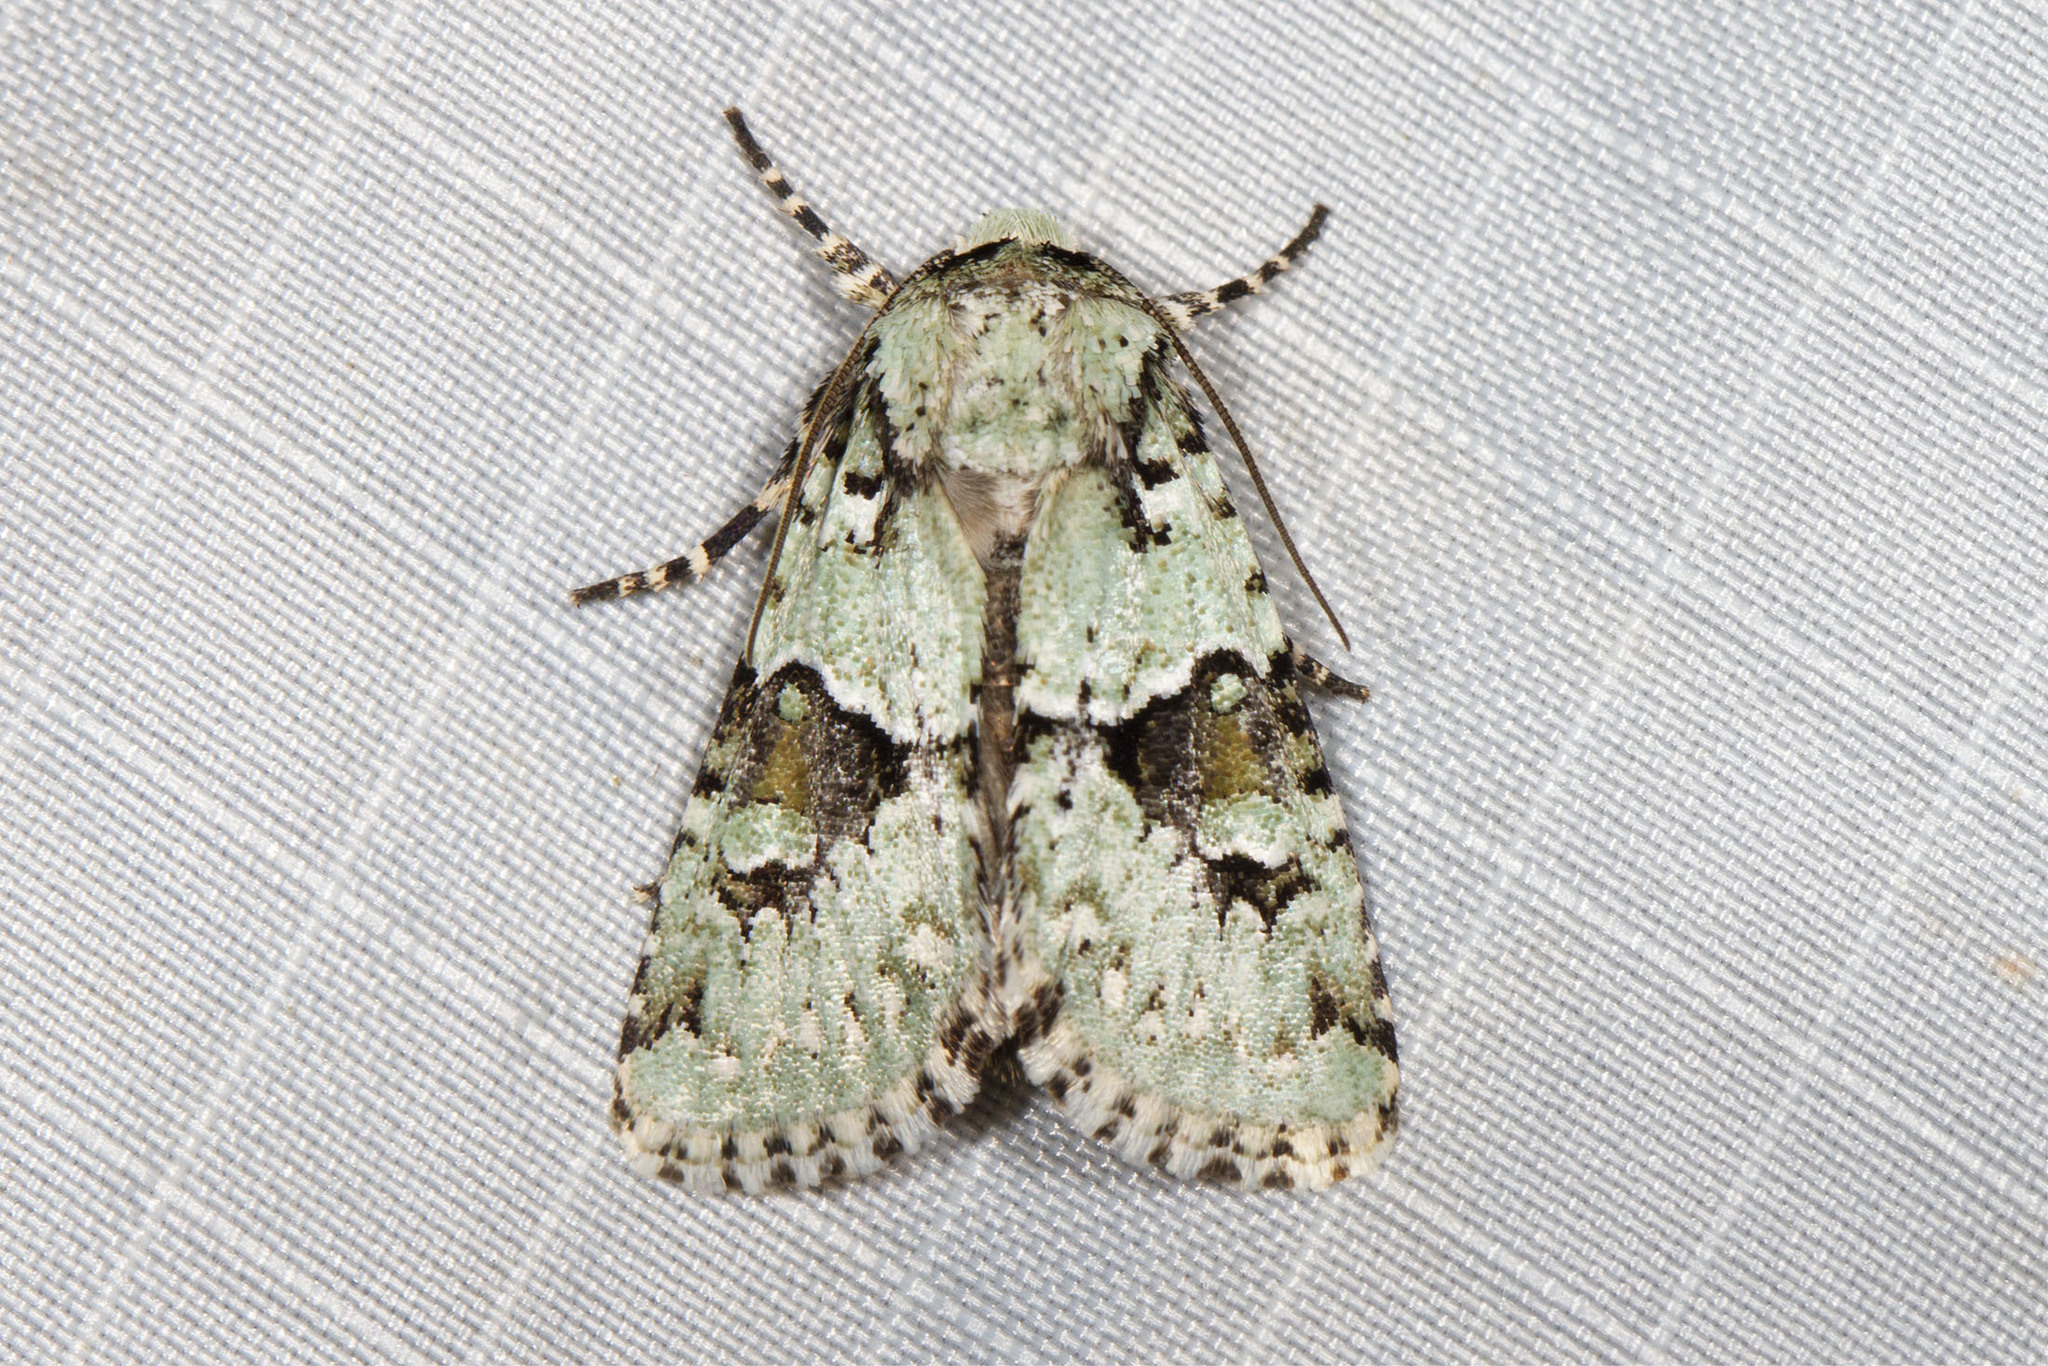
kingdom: Animalia
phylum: Arthropoda
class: Insecta
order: Lepidoptera
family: Noctuidae
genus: Lacinipolia
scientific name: Lacinipolia implicata
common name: Implicit arches
